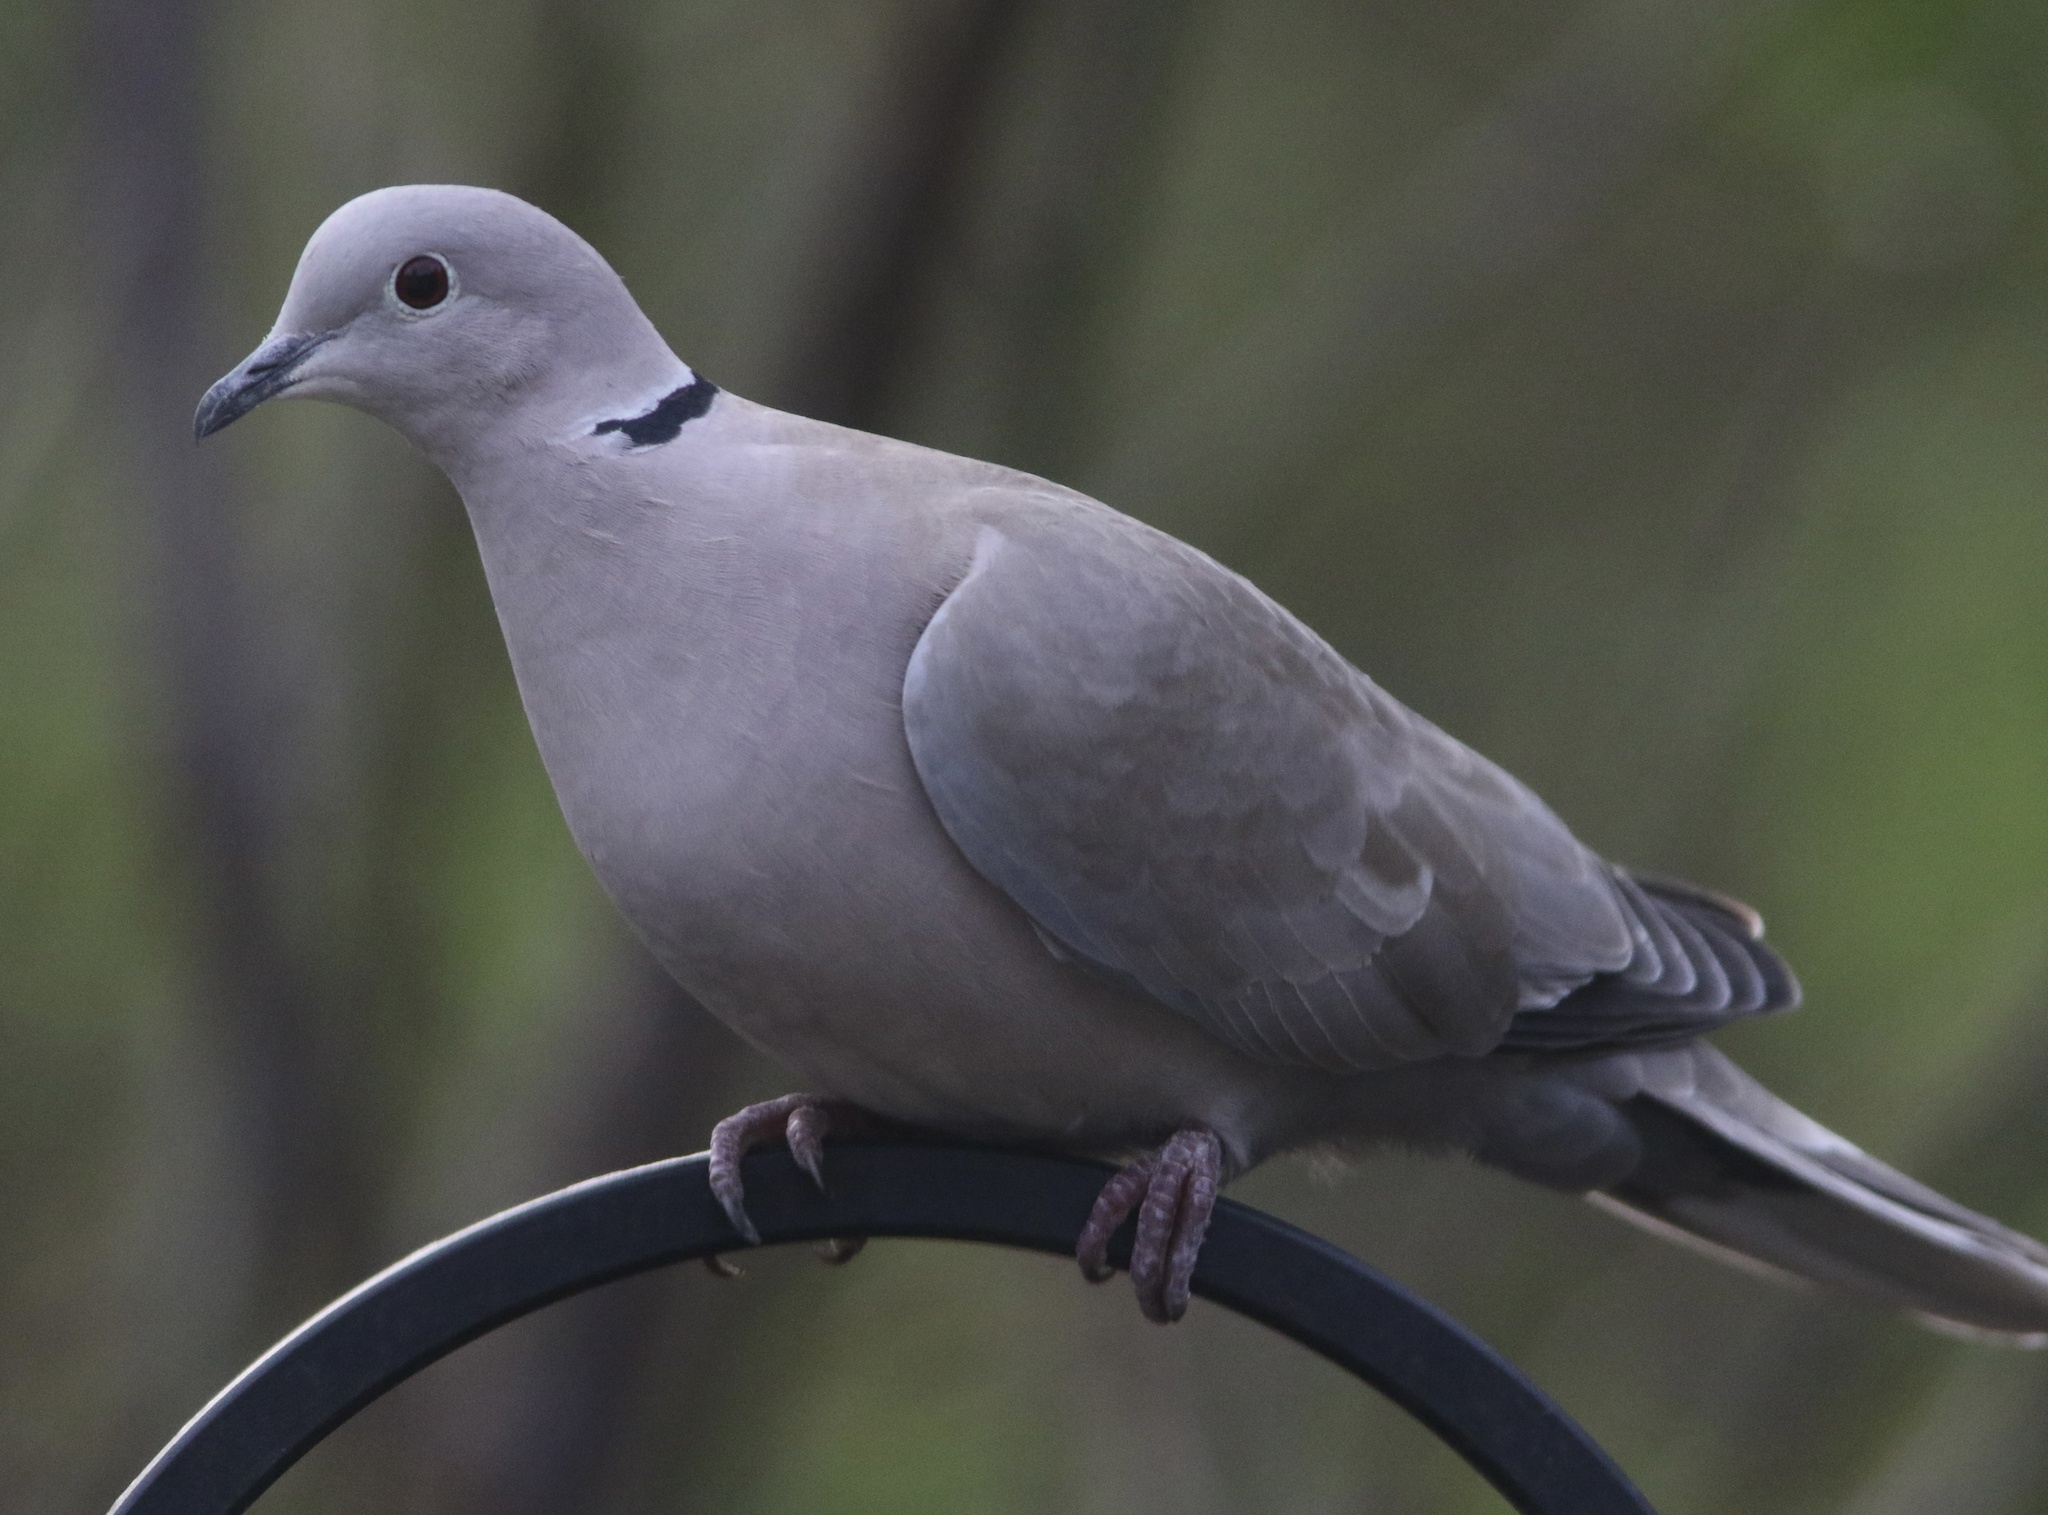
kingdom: Animalia
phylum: Chordata
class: Aves
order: Columbiformes
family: Columbidae
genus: Streptopelia
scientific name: Streptopelia decaocto
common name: Eurasian collared dove
